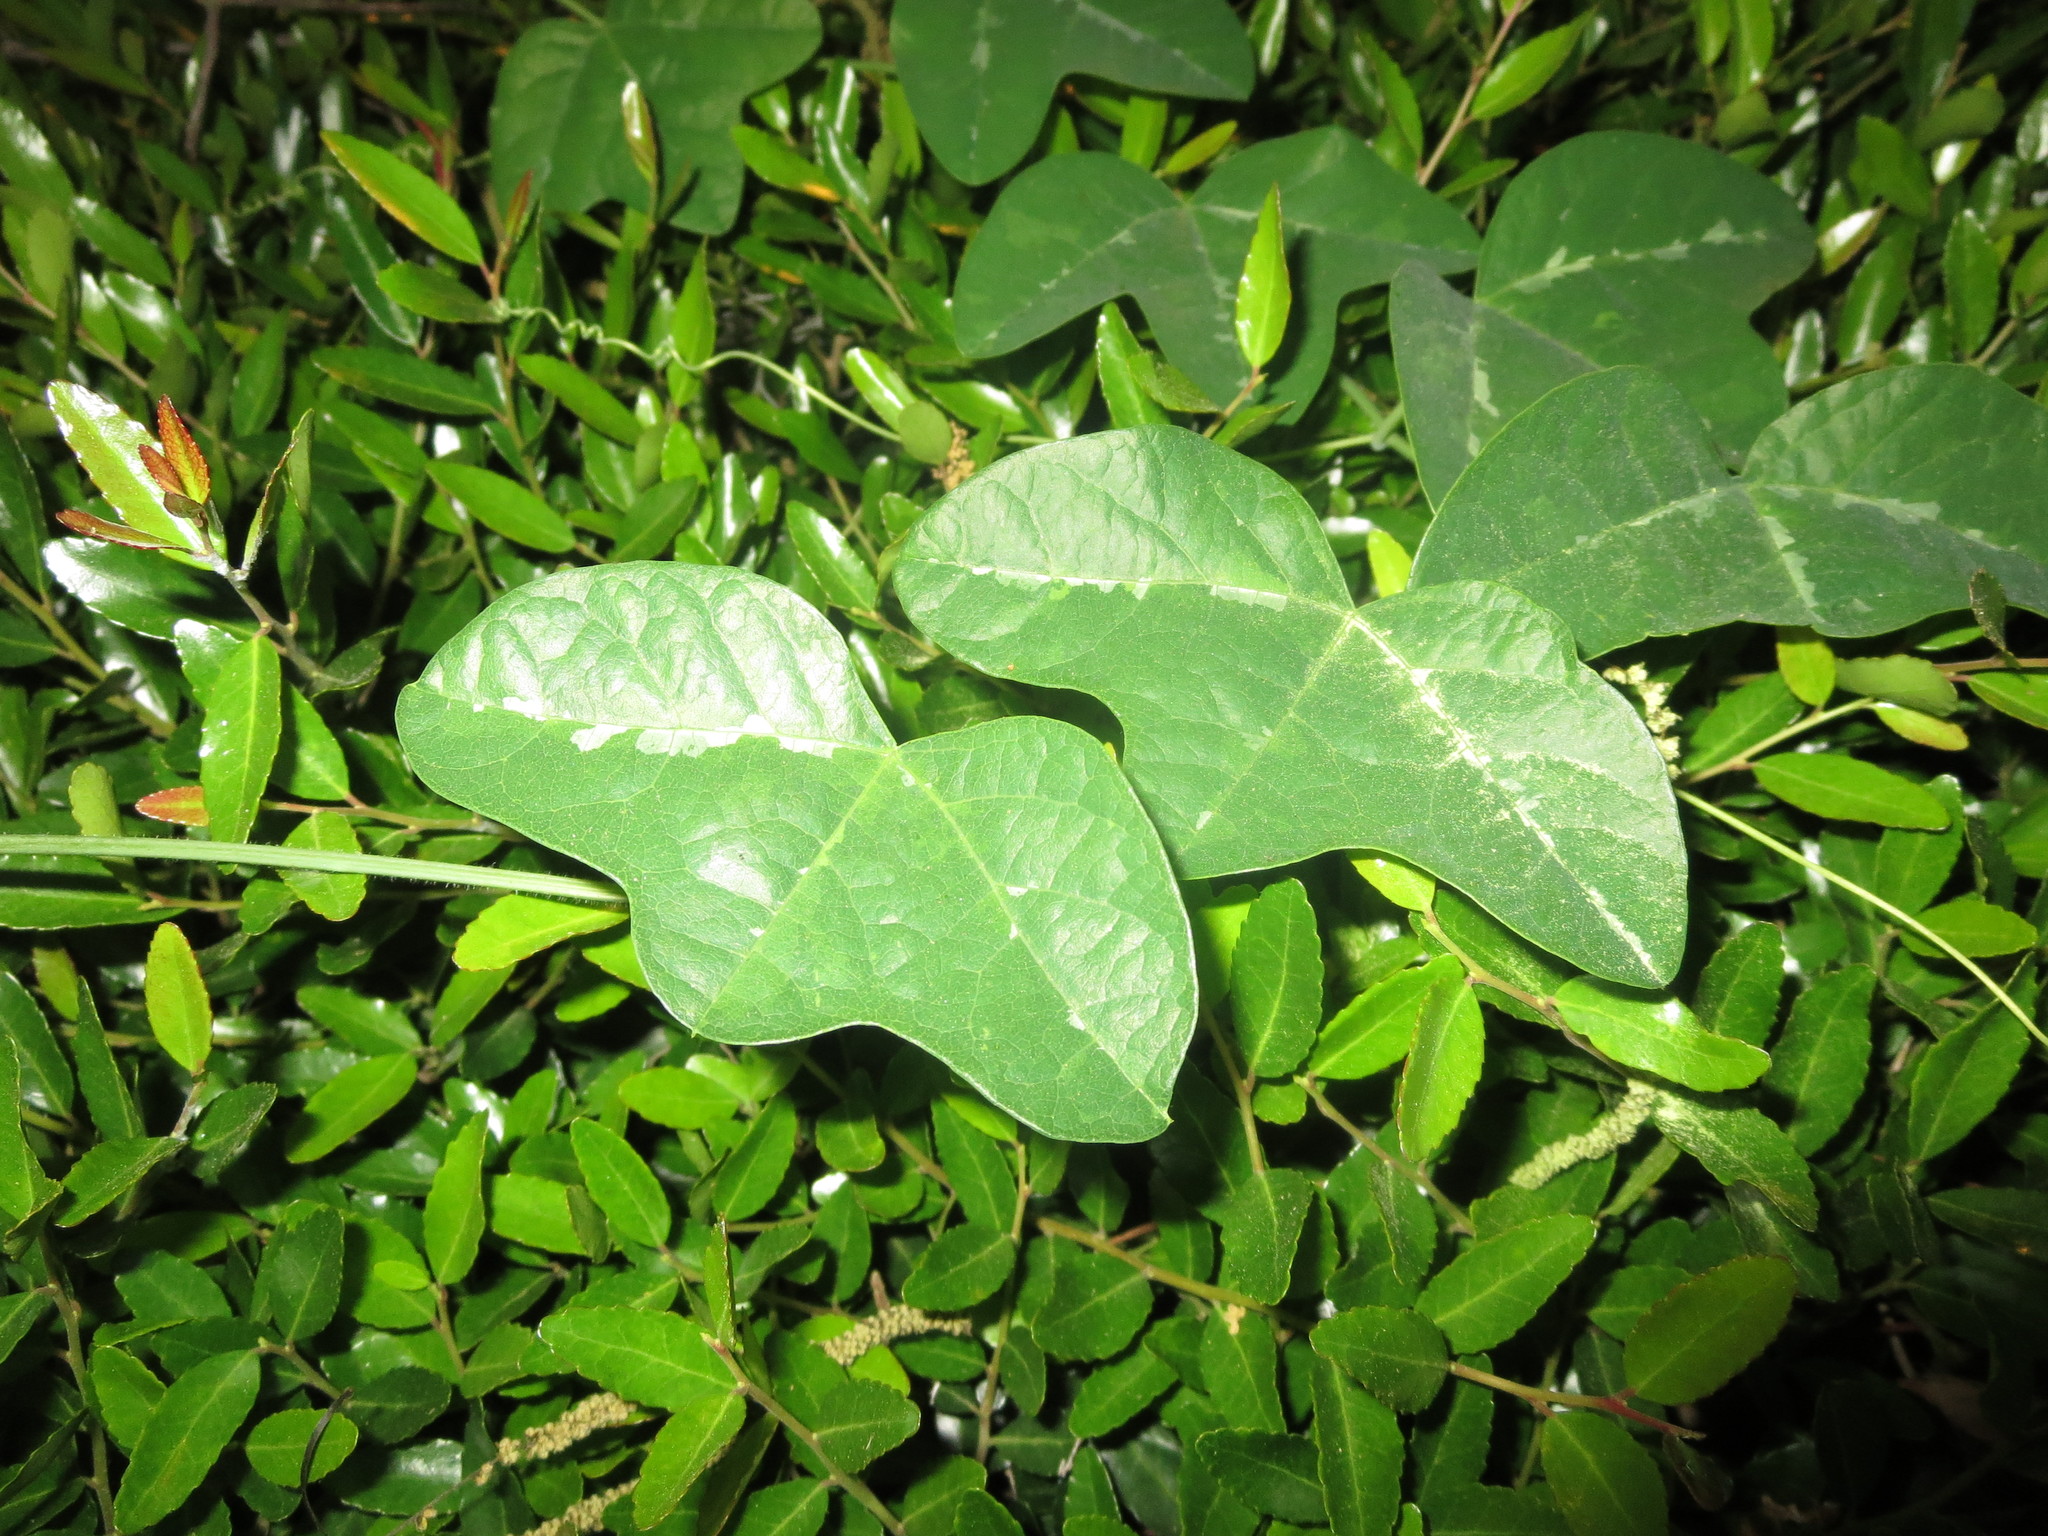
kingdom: Plantae
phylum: Tracheophyta
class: Magnoliopsida
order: Malpighiales
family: Passifloraceae
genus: Passiflora
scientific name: Passiflora lutea
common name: Yellow passionflower
